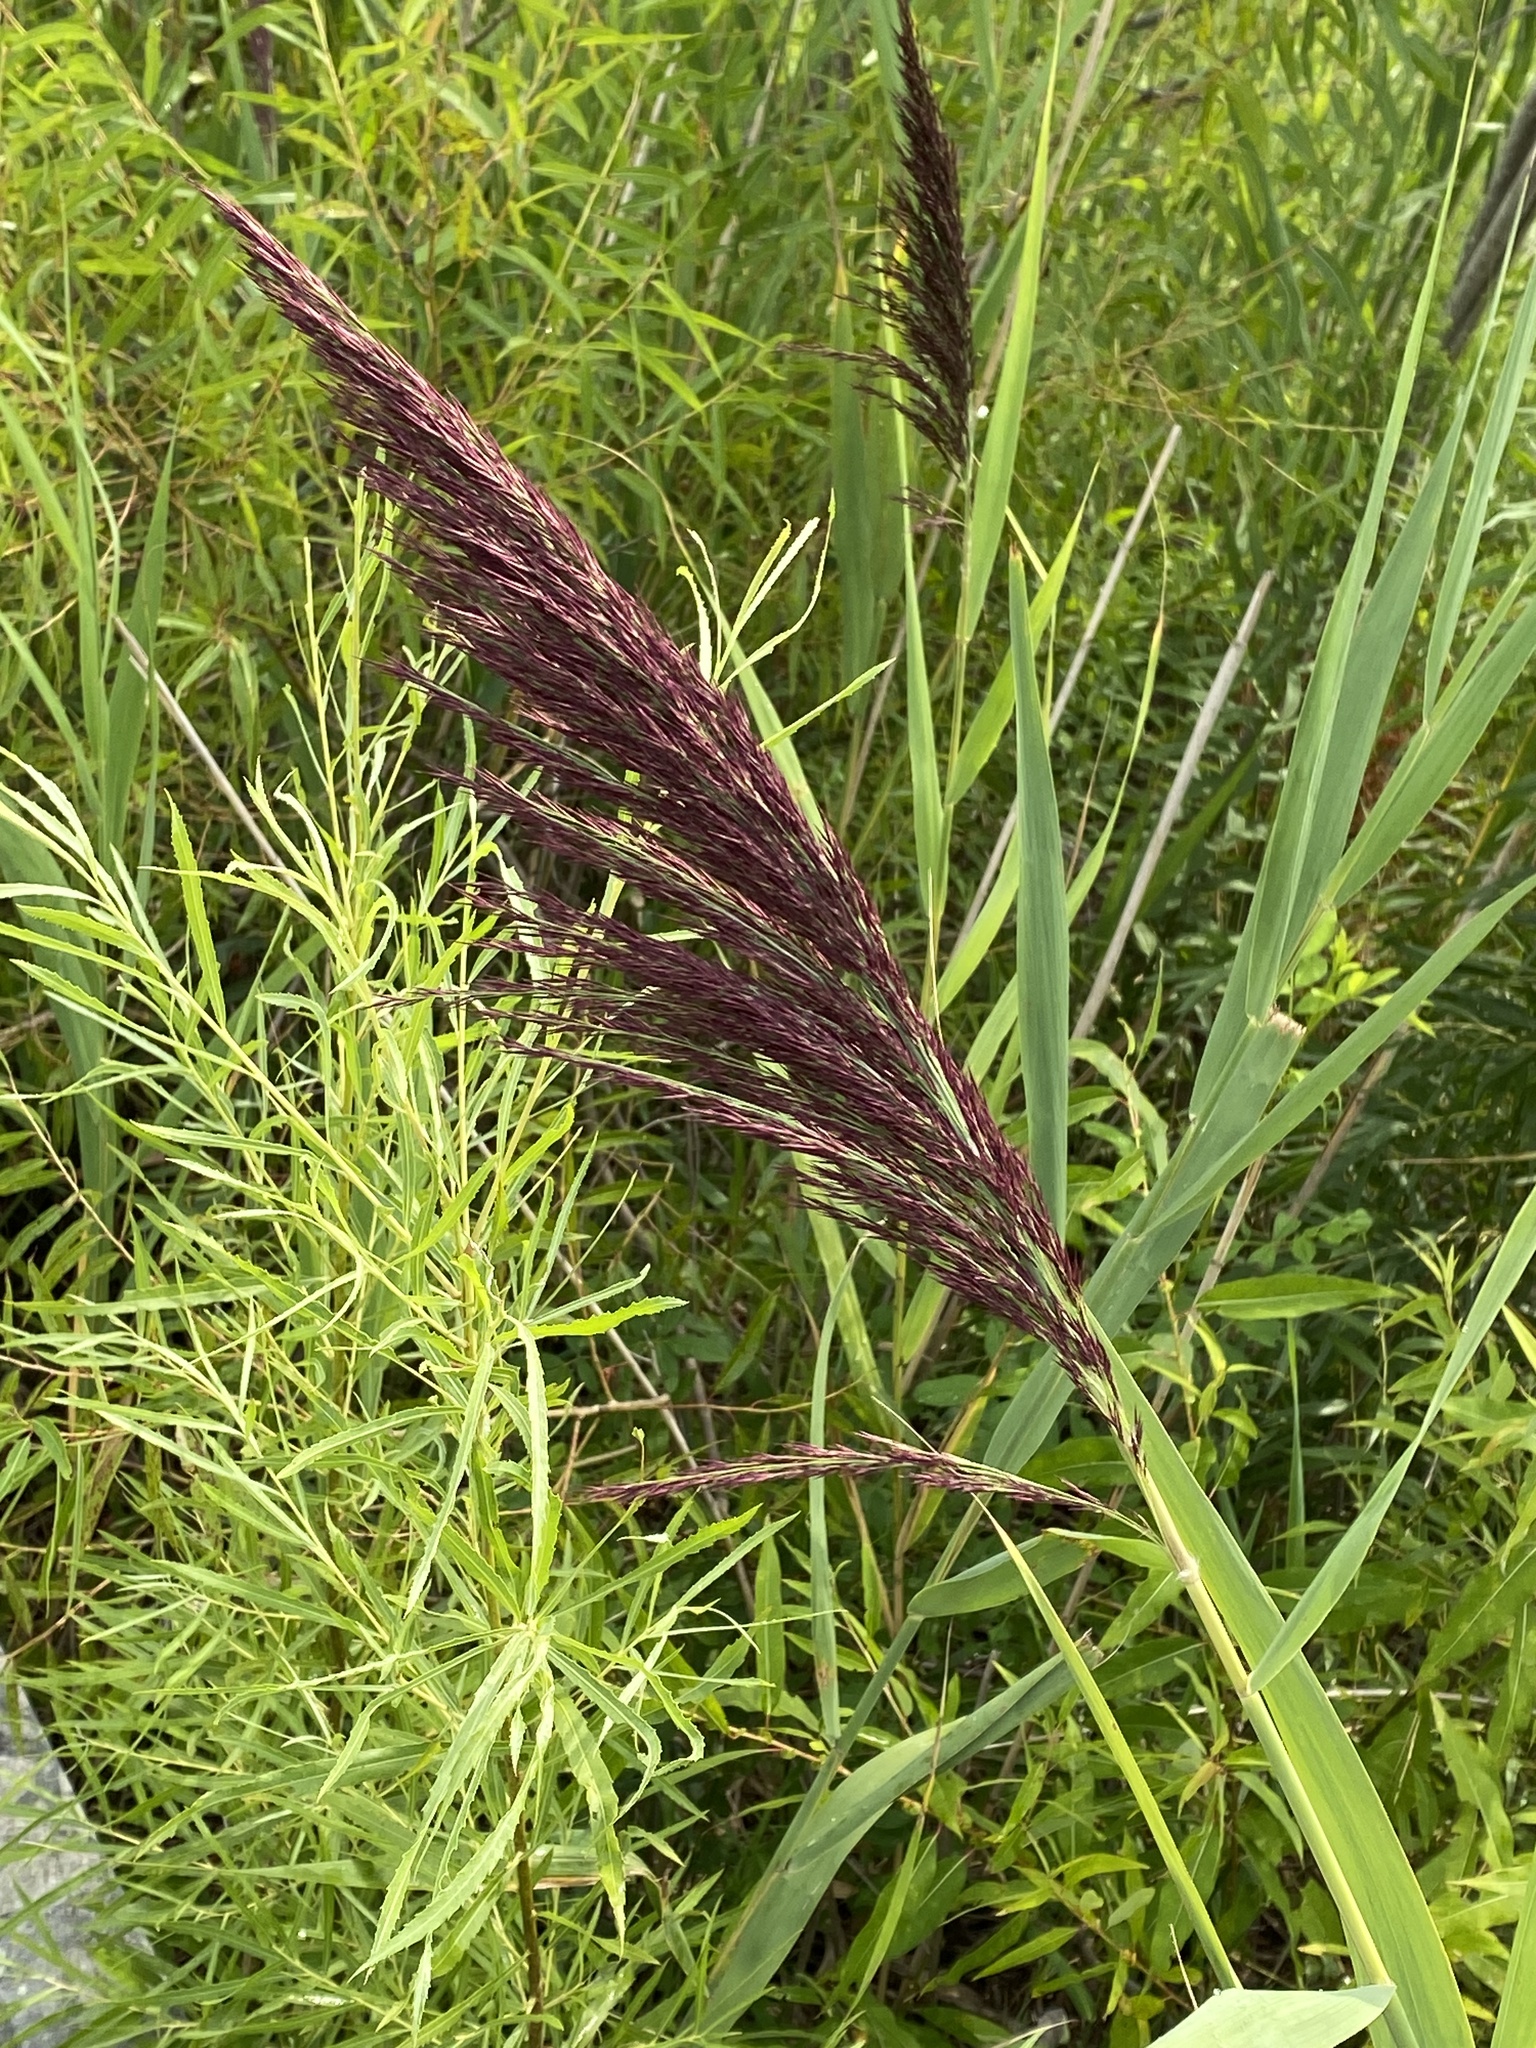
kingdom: Plantae
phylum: Tracheophyta
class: Liliopsida
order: Poales
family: Poaceae
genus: Phragmites
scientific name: Phragmites australis
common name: Common reed
